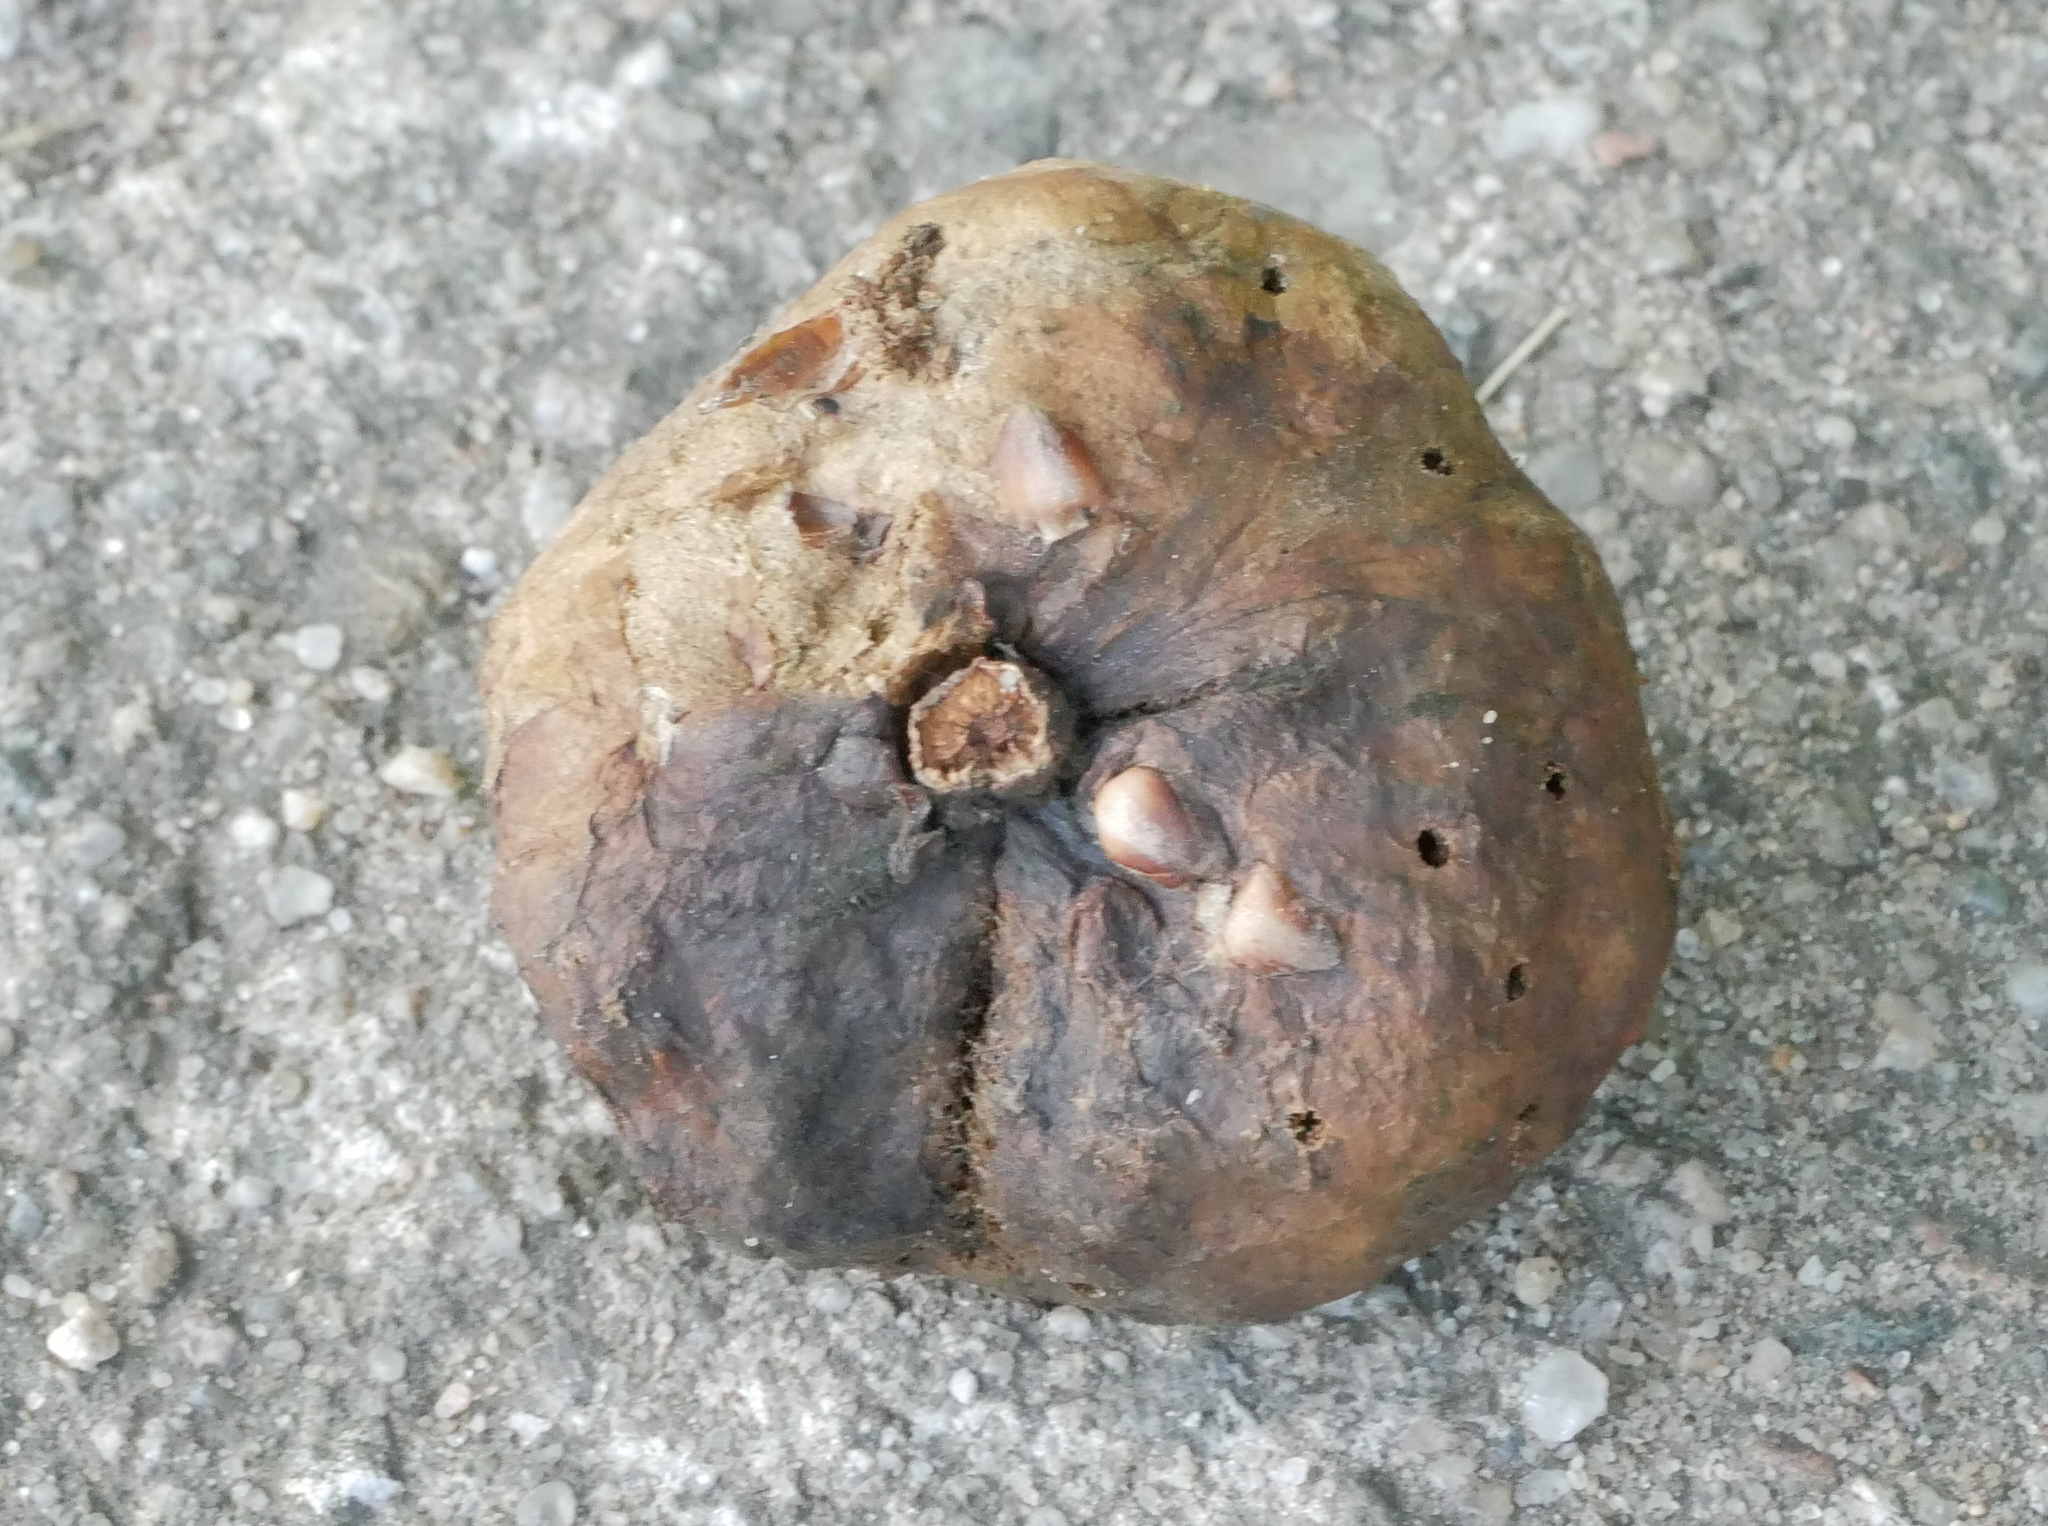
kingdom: Animalia
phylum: Arthropoda
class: Insecta
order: Hymenoptera
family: Cynipidae
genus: Biorhiza
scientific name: Biorhiza pallida
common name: Oak apple
